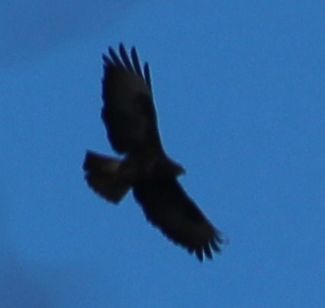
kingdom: Animalia
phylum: Chordata
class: Aves
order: Accipitriformes
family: Accipitridae
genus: Buteo
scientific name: Buteo buteo
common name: Common buzzard
